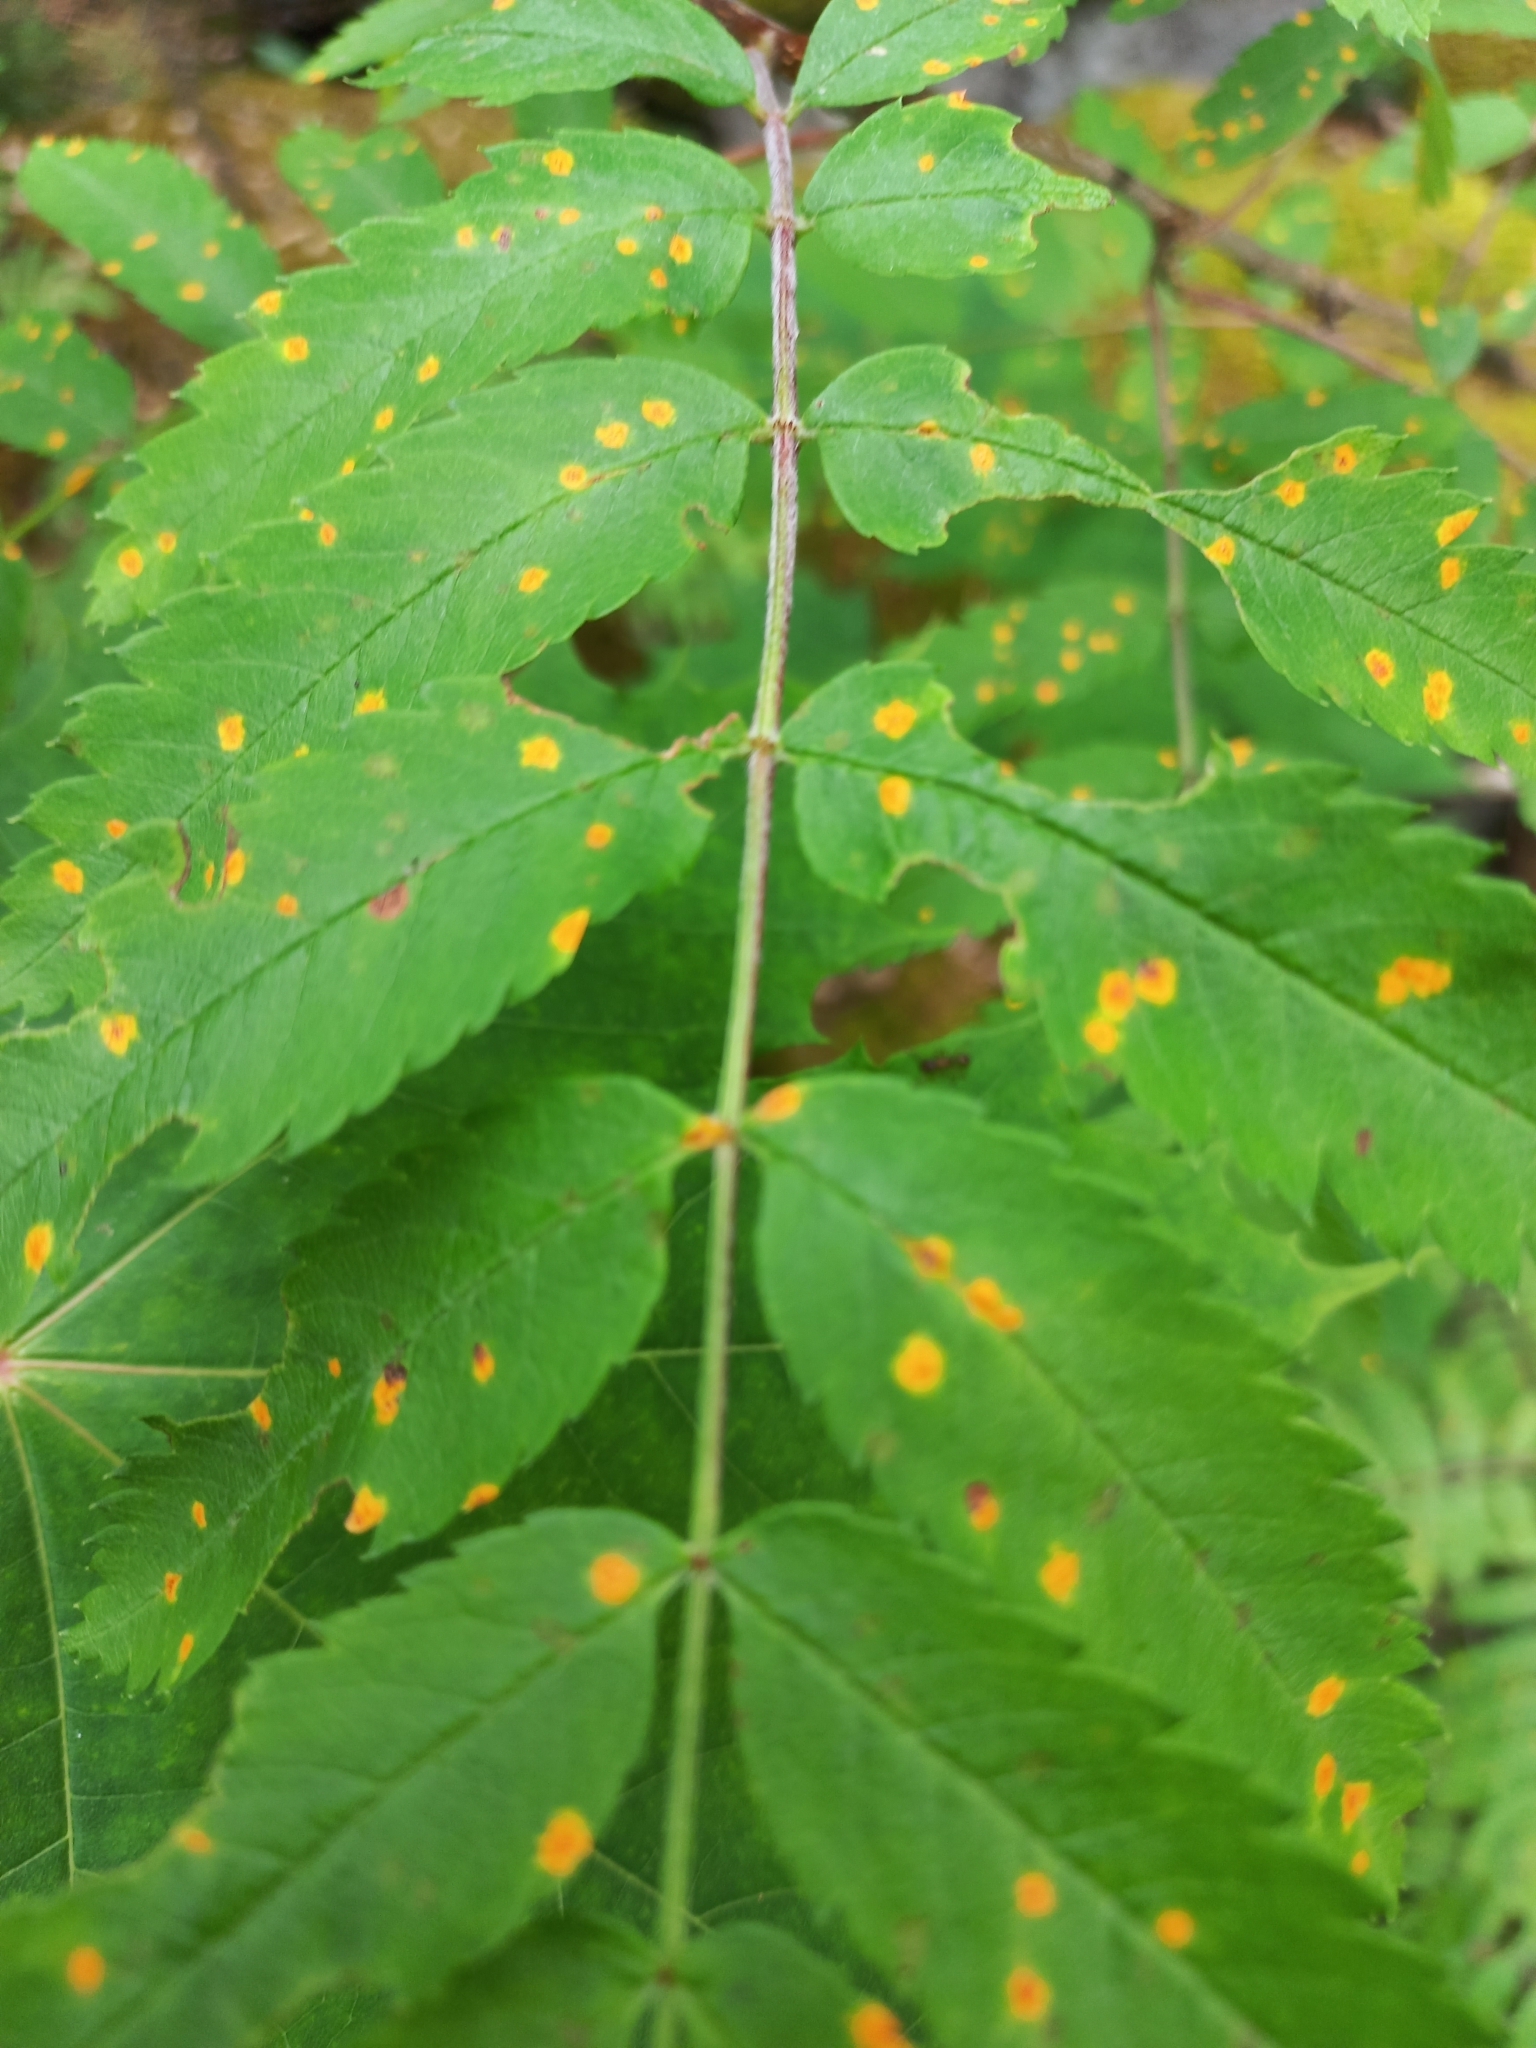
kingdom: Fungi
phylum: Basidiomycota
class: Pucciniomycetes
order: Pucciniales
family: Gymnosporangiaceae
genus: Gymnosporangium
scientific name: Gymnosporangium cornutum
